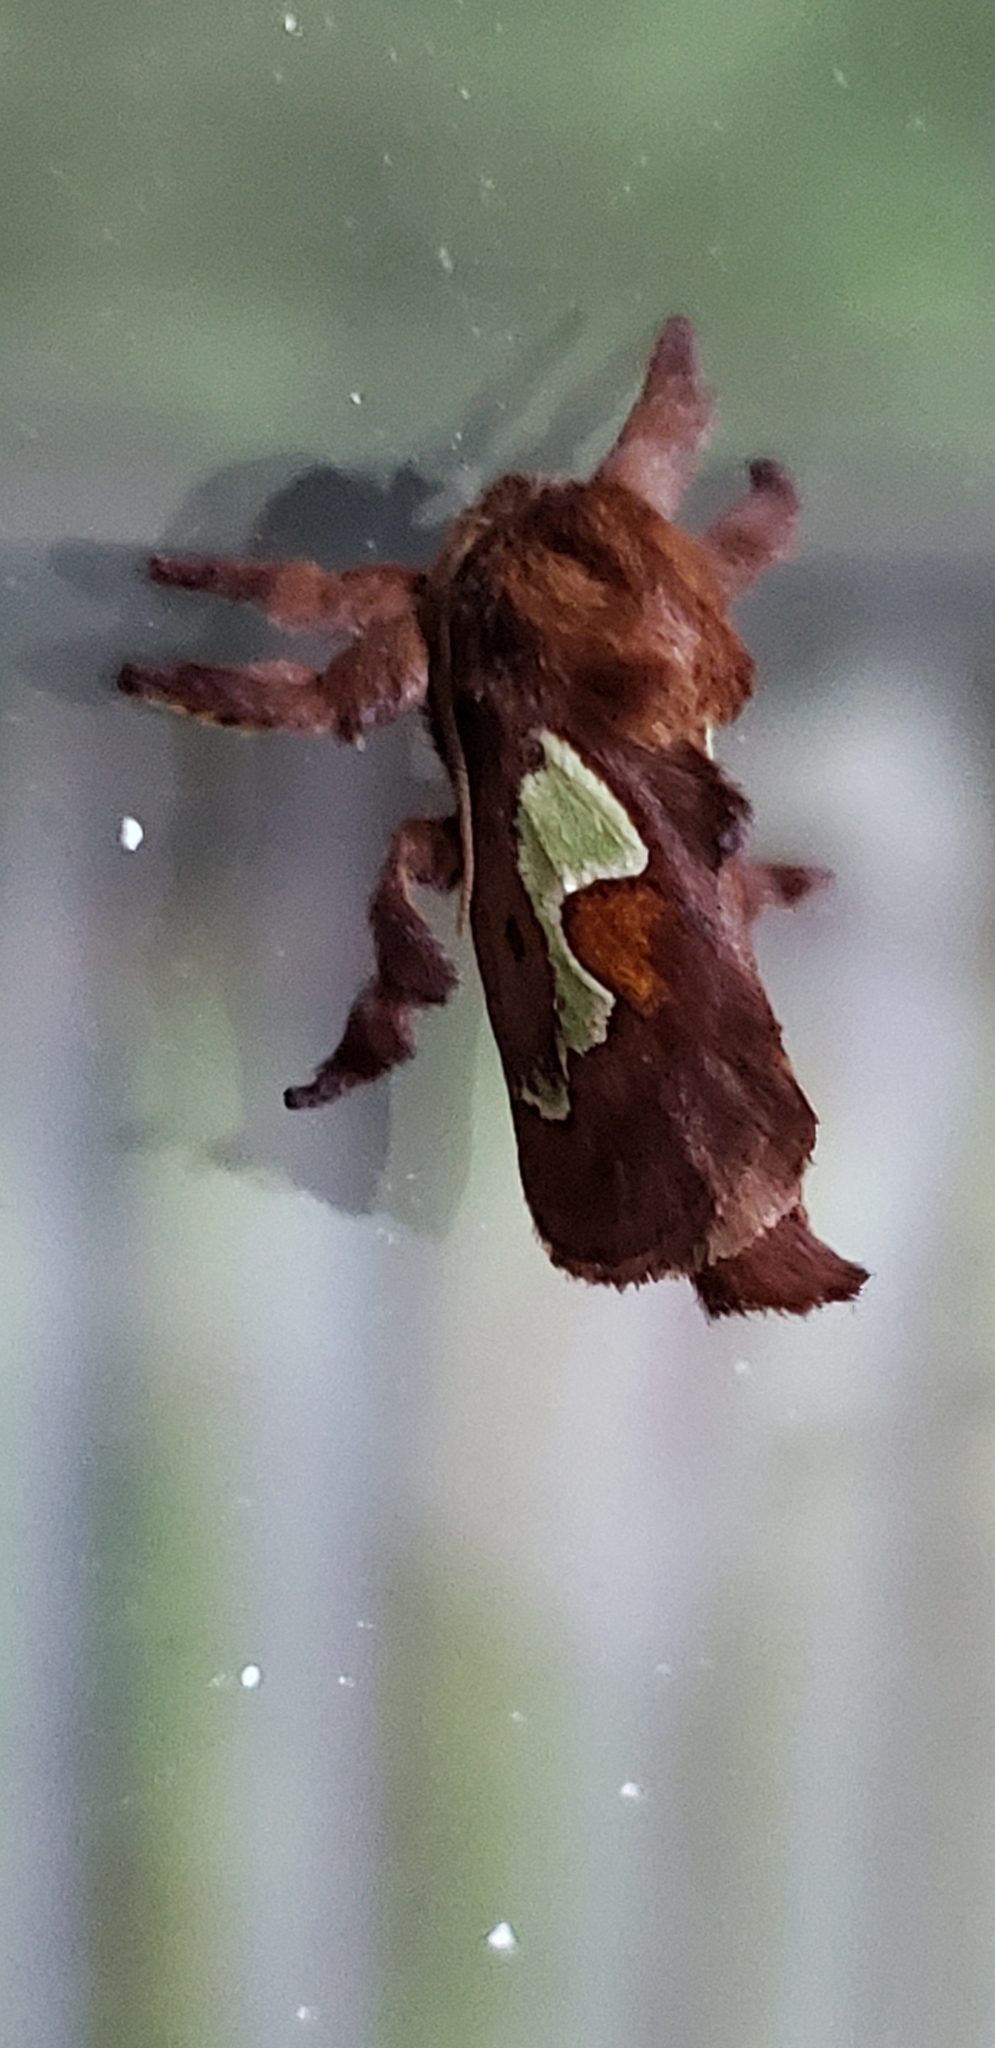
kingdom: Animalia
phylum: Arthropoda
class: Insecta
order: Lepidoptera
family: Limacodidae
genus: Euclea
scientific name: Euclea delphinii
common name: Spiny oak-slug moth
